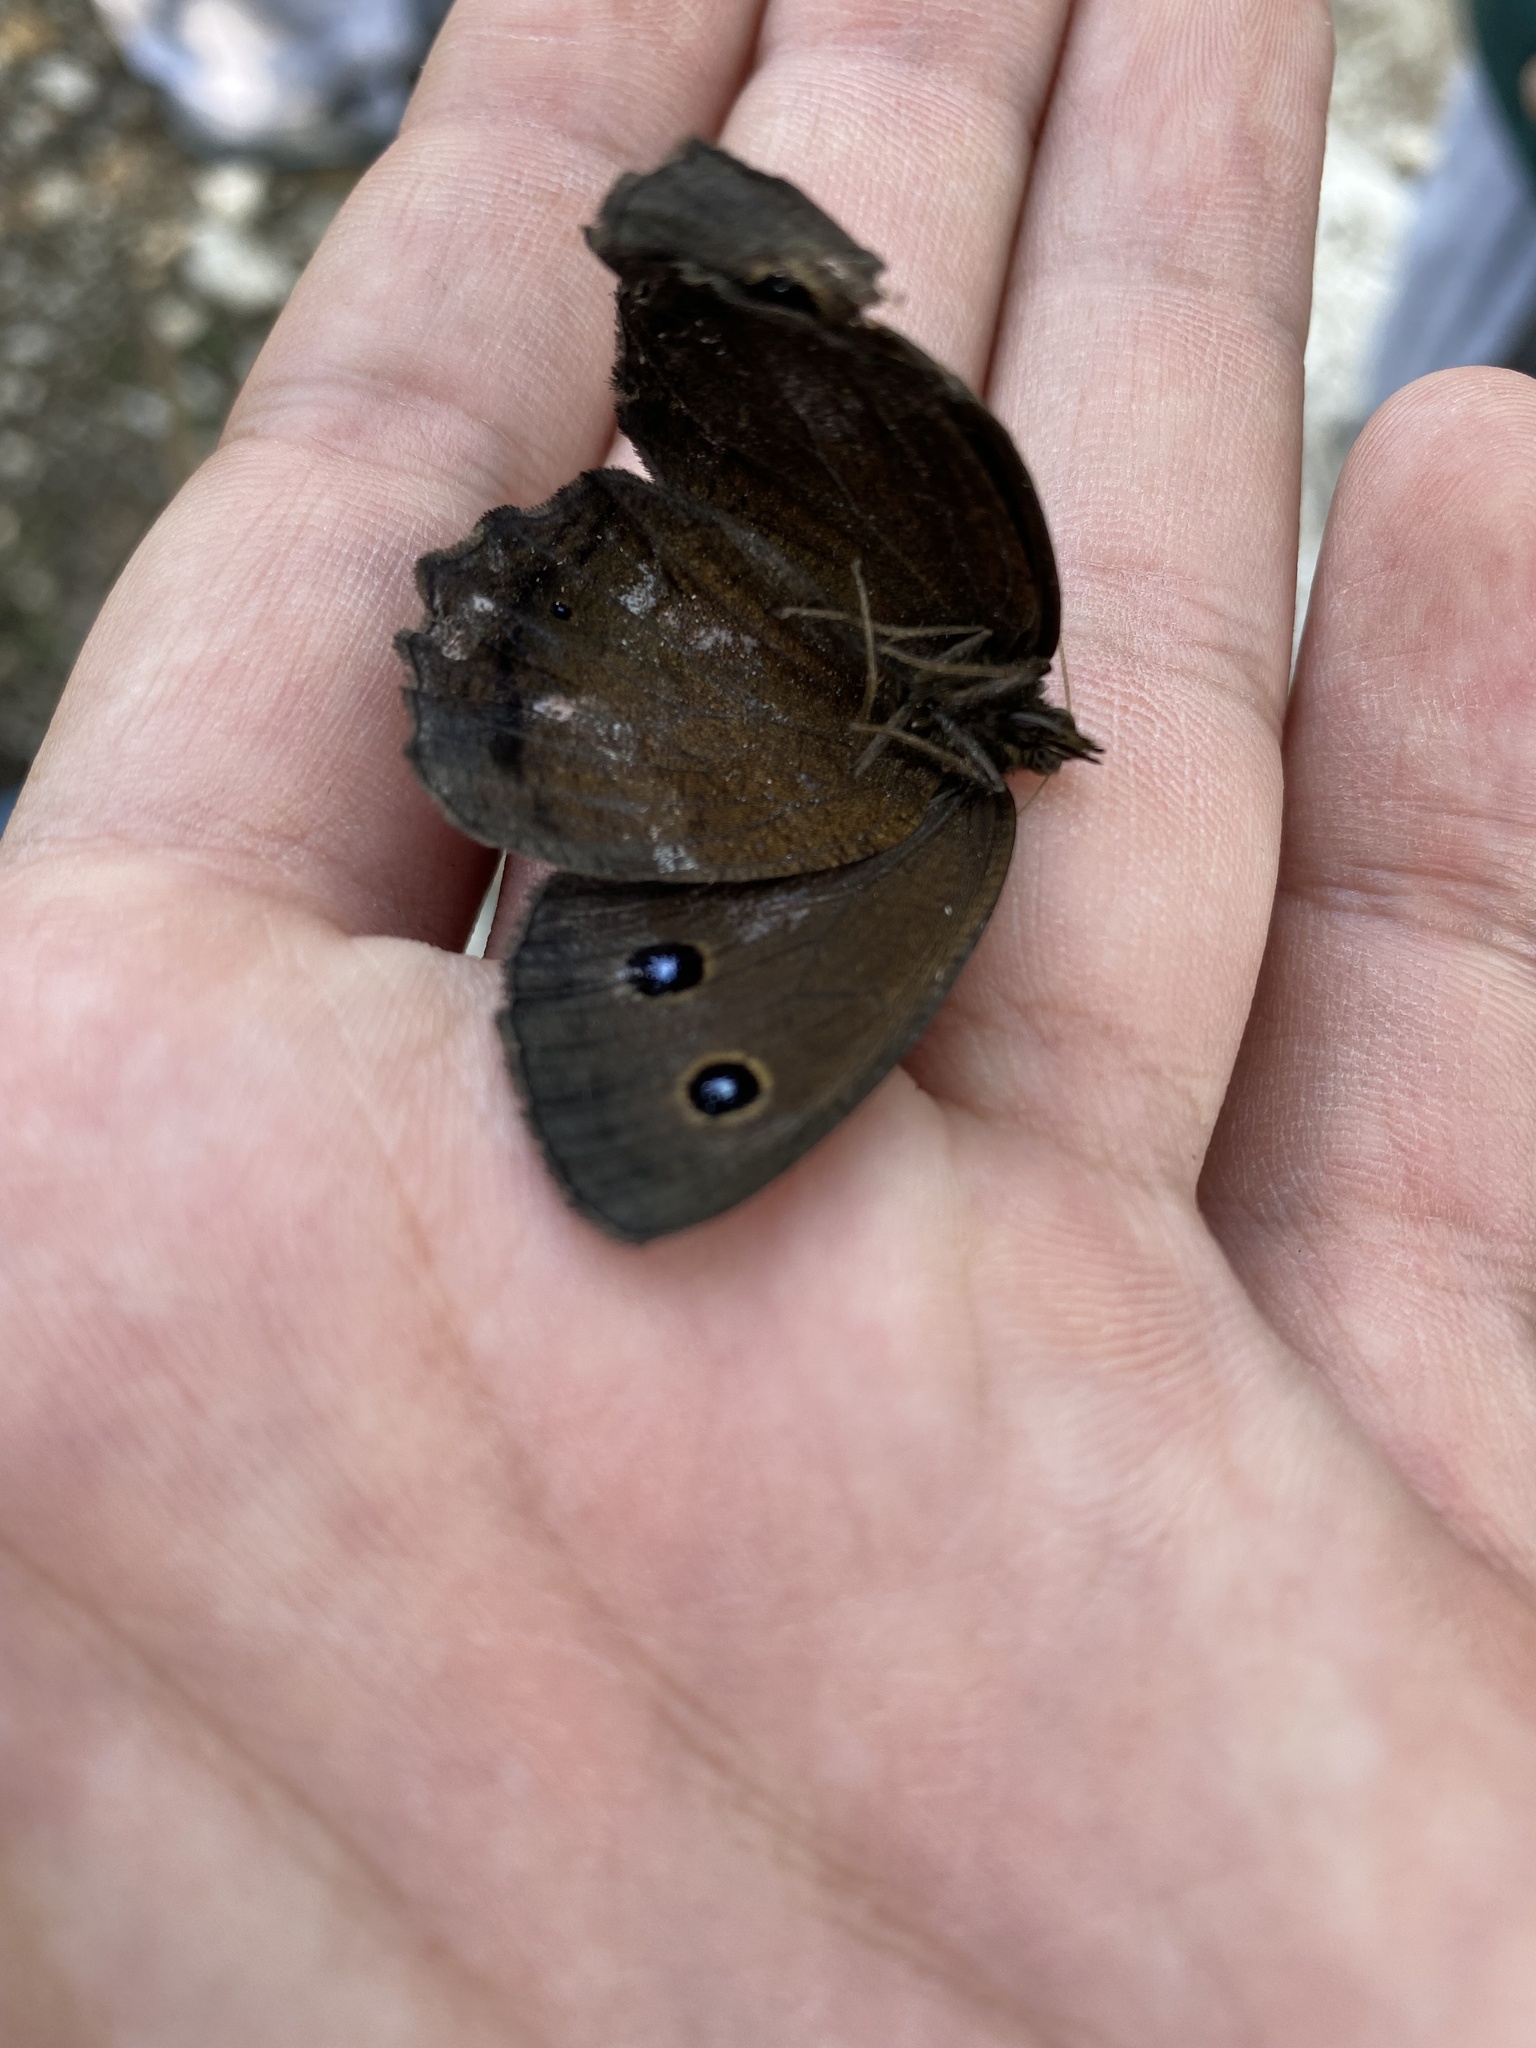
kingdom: Animalia
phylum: Arthropoda
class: Insecta
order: Lepidoptera
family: Nymphalidae
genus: Minois
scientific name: Minois dryas
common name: Dryad
